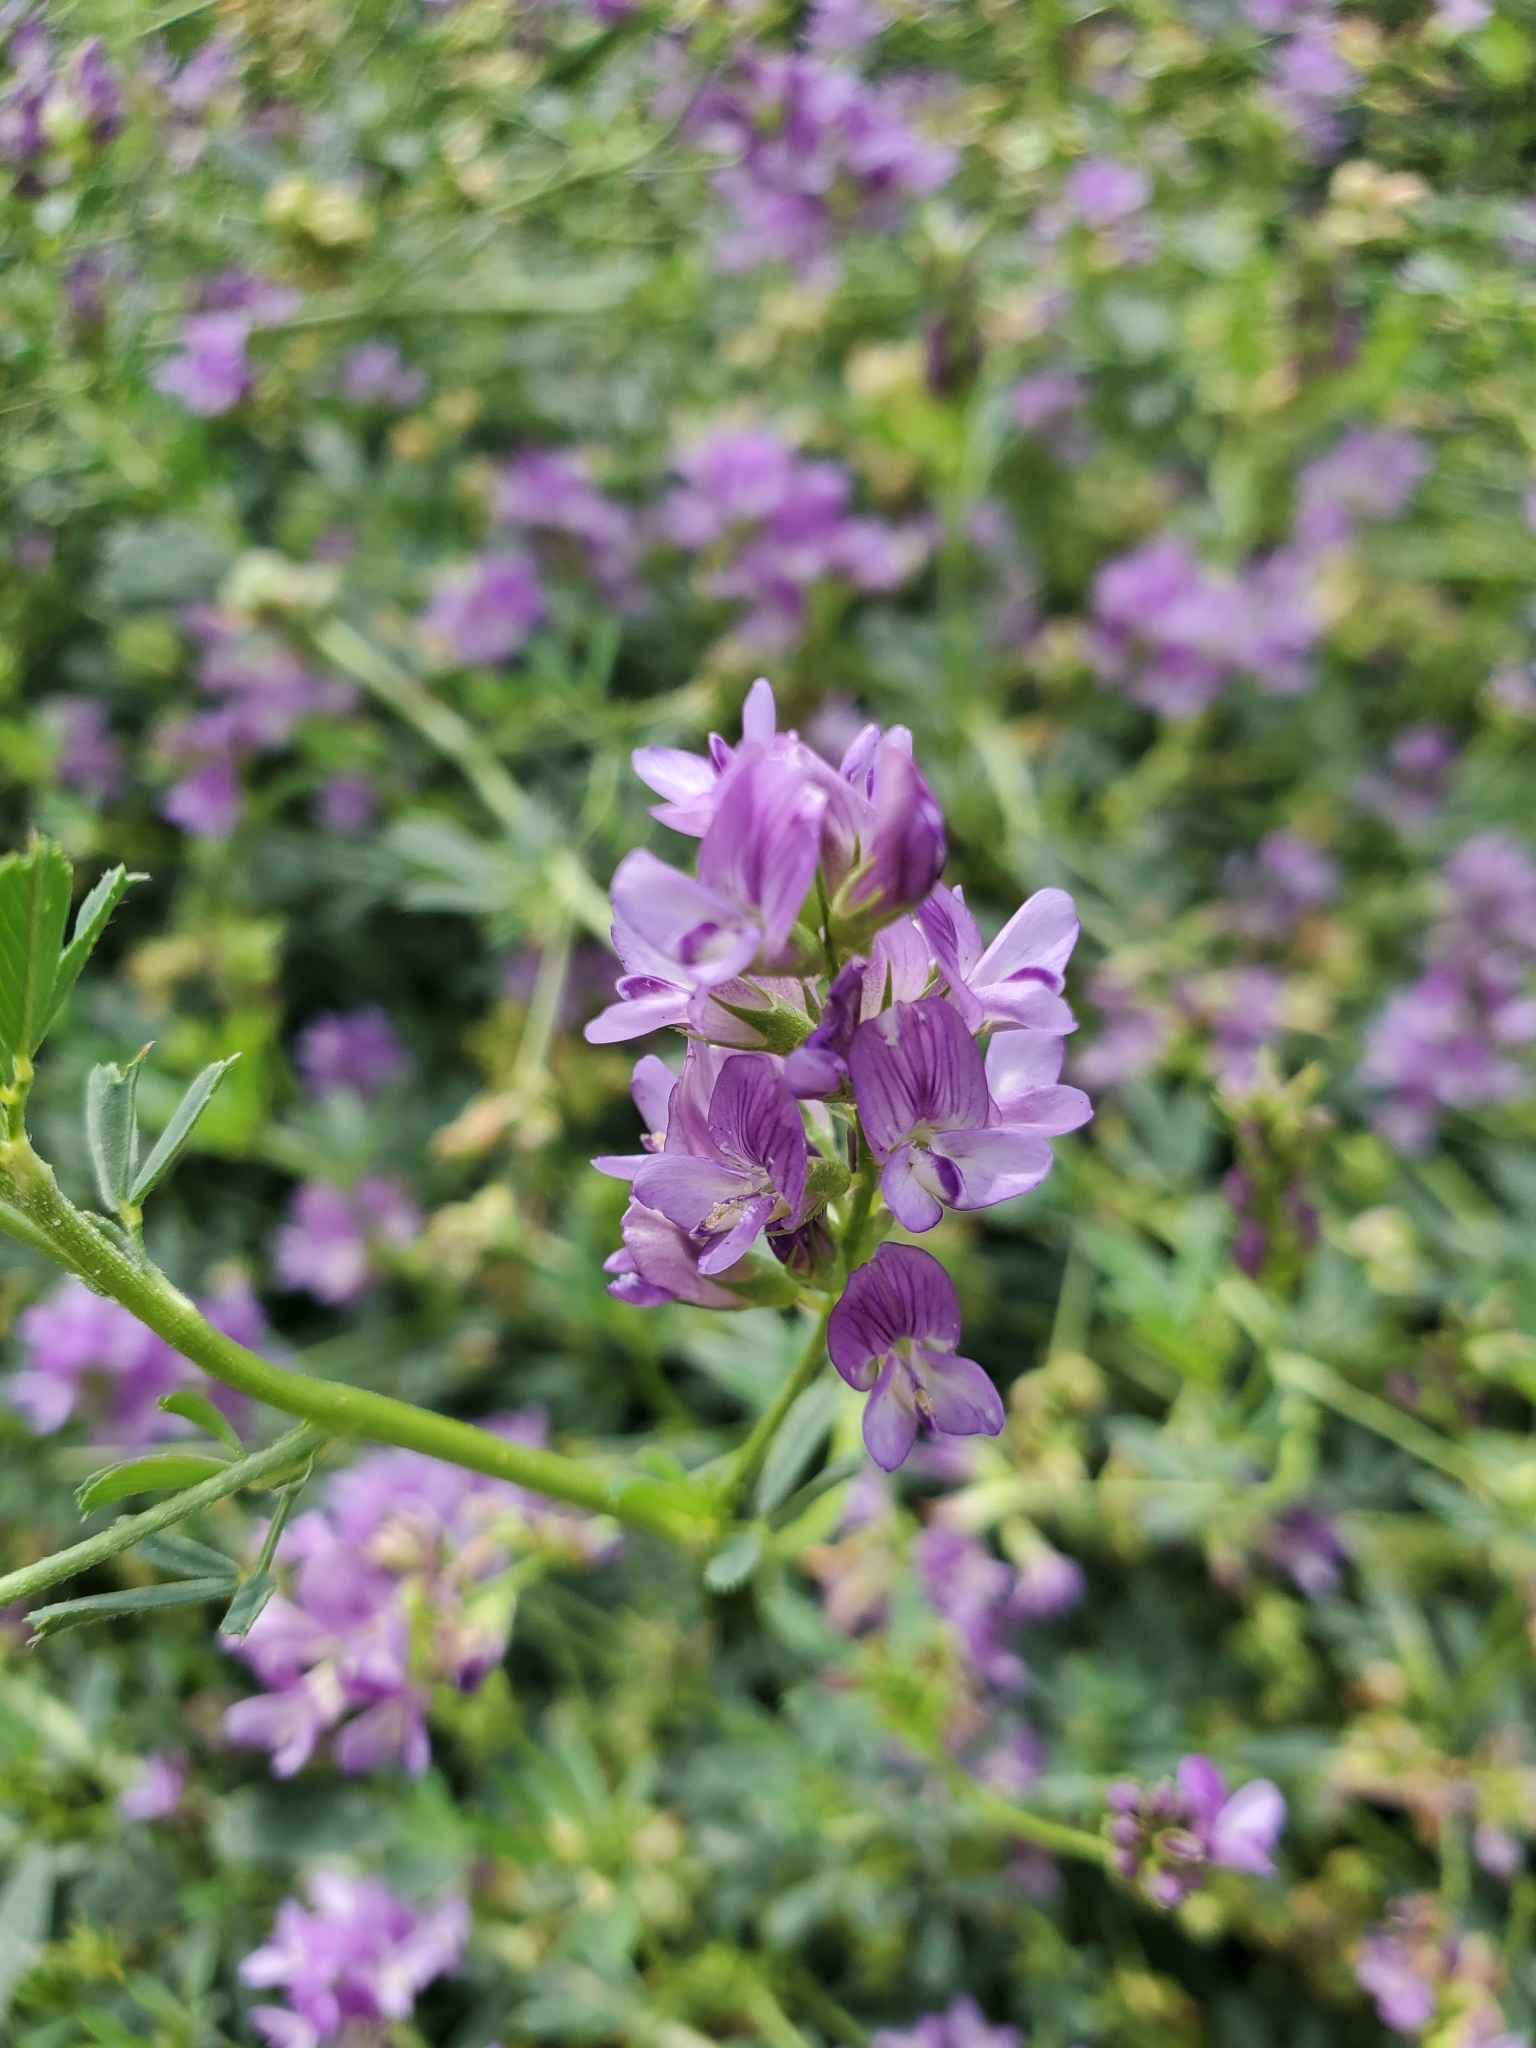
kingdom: Plantae
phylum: Tracheophyta
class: Magnoliopsida
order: Fabales
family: Fabaceae
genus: Medicago
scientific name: Medicago sativa
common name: Alfalfa
